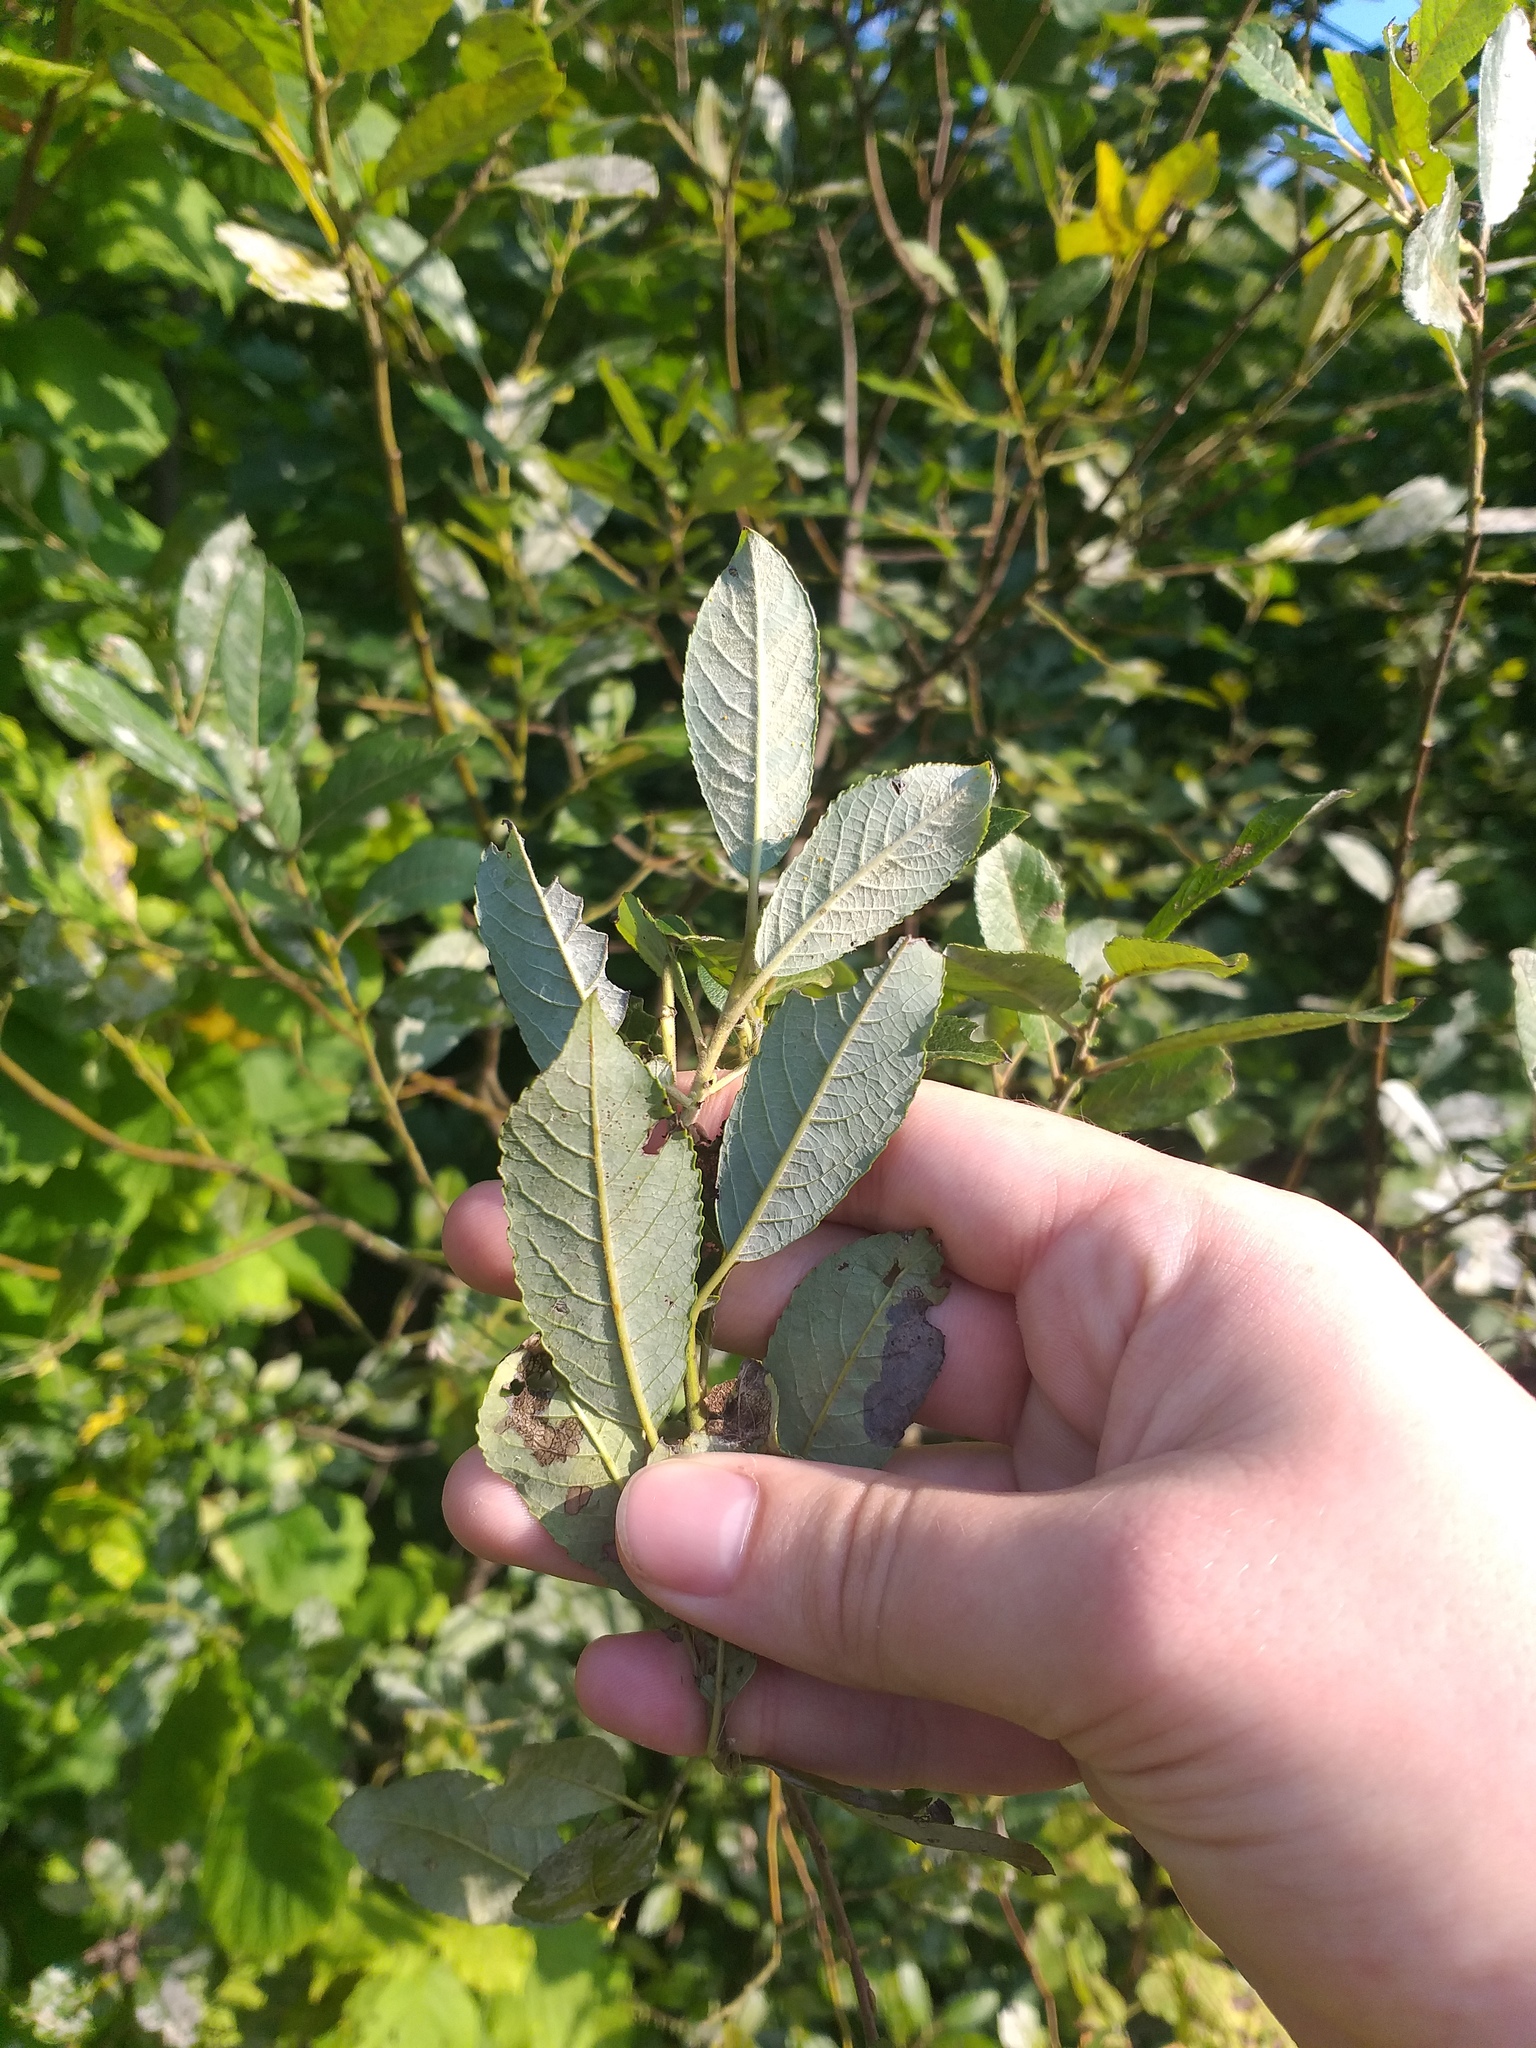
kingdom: Plantae
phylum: Tracheophyta
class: Magnoliopsida
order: Malpighiales
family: Salicaceae
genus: Salix
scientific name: Salix myrsinifolia
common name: Dark-leaved willow
